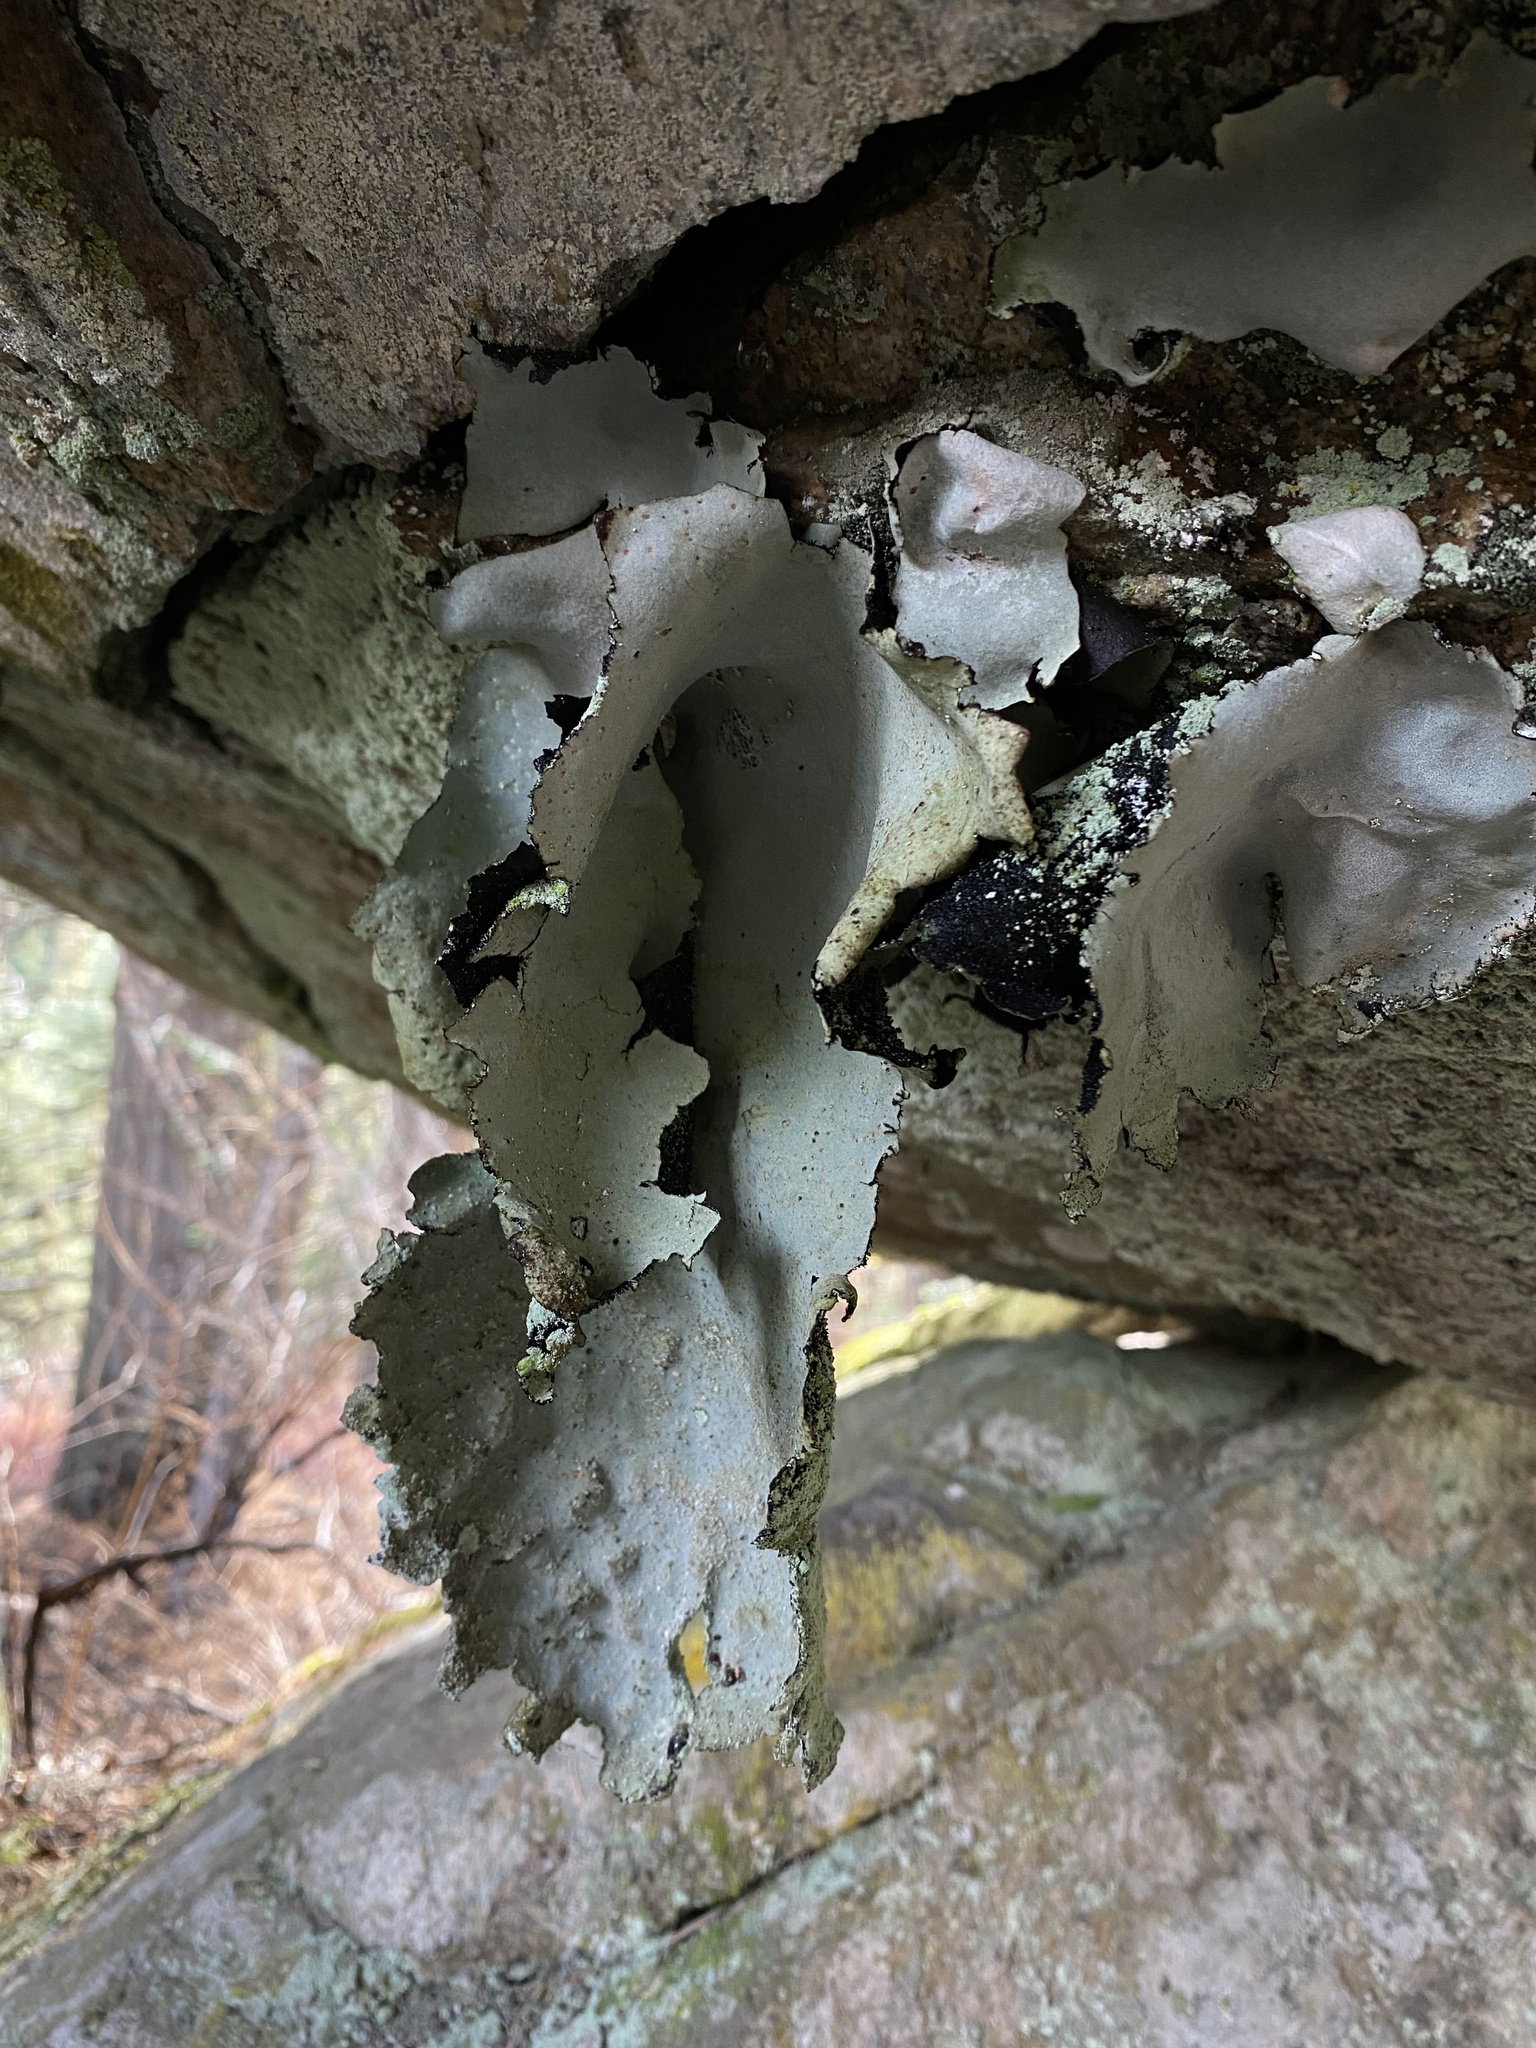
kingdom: Fungi
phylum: Ascomycota
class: Lecanoromycetes
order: Umbilicariales
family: Umbilicariaceae
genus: Umbilicaria
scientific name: Umbilicaria americana
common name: Frosted rock tripe
